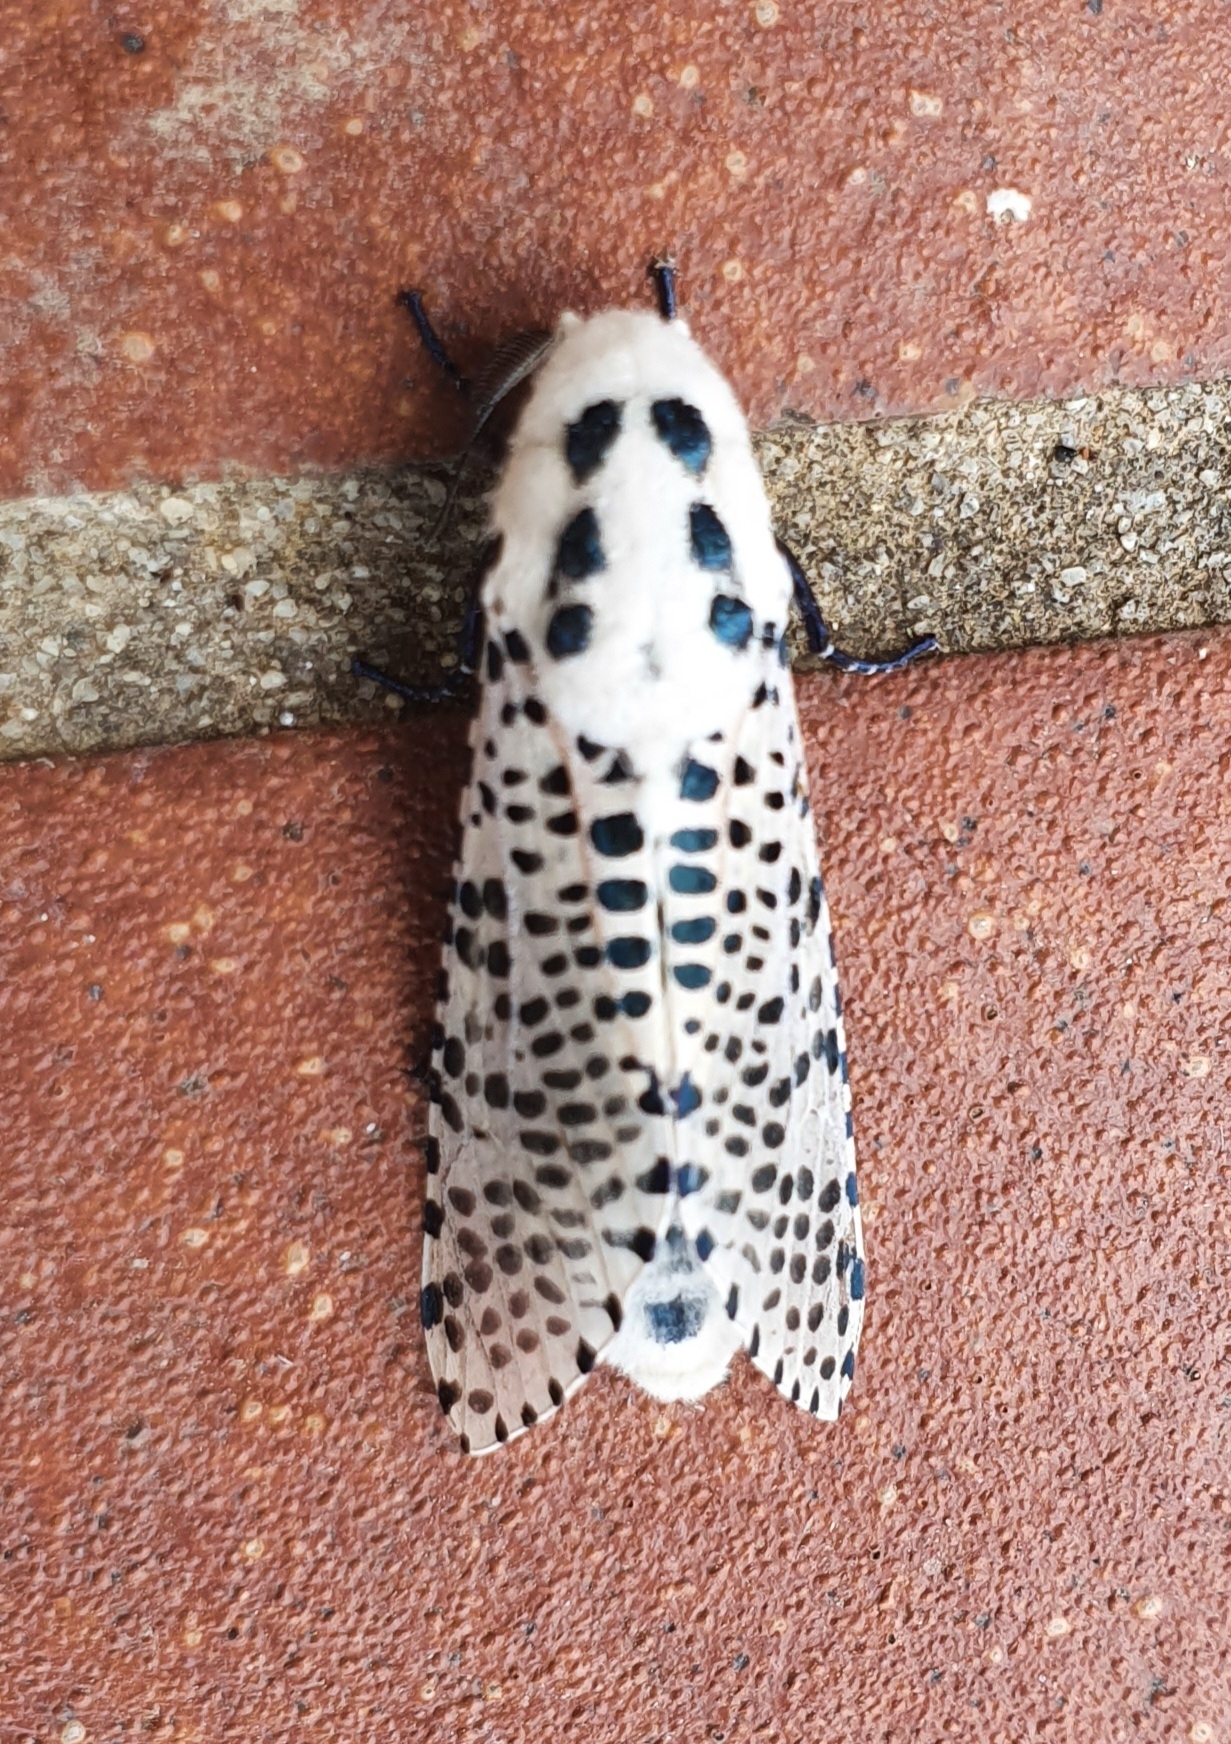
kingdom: Animalia
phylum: Arthropoda
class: Insecta
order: Lepidoptera
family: Cossidae
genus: Zeuzera
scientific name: Zeuzera pyrina
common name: Leopard moth
